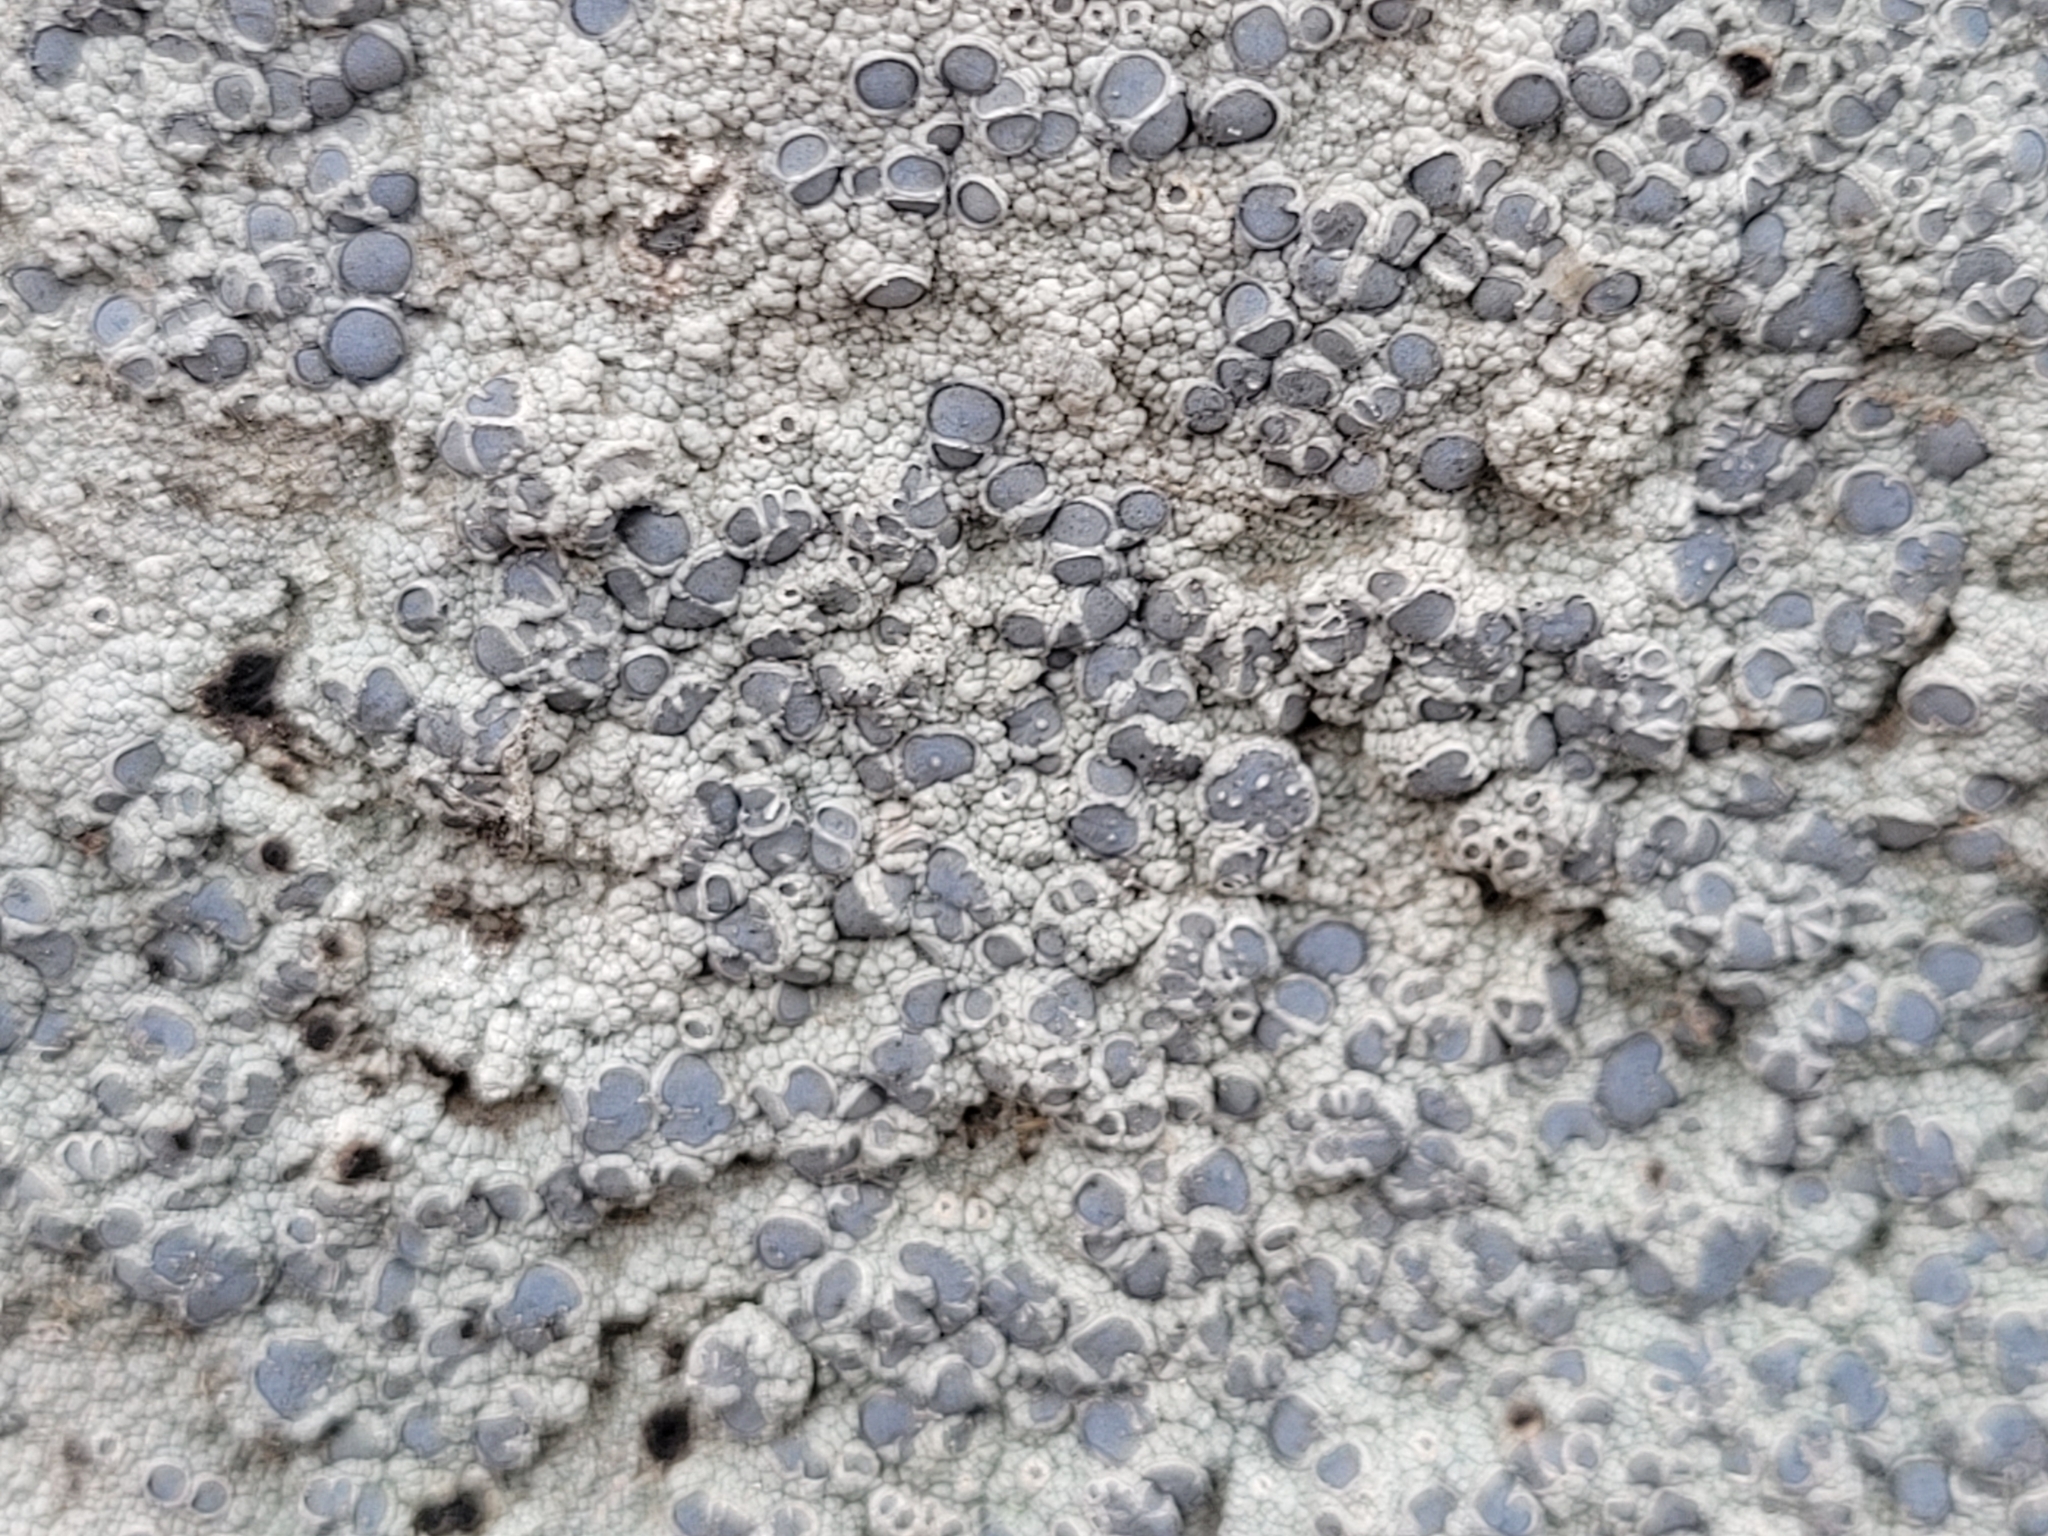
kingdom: Fungi
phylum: Ascomycota
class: Lecanoromycetes
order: Ostropales
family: Graphidaceae
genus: Diploschistes
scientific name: Diploschistes scruposus
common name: Crater lichen
